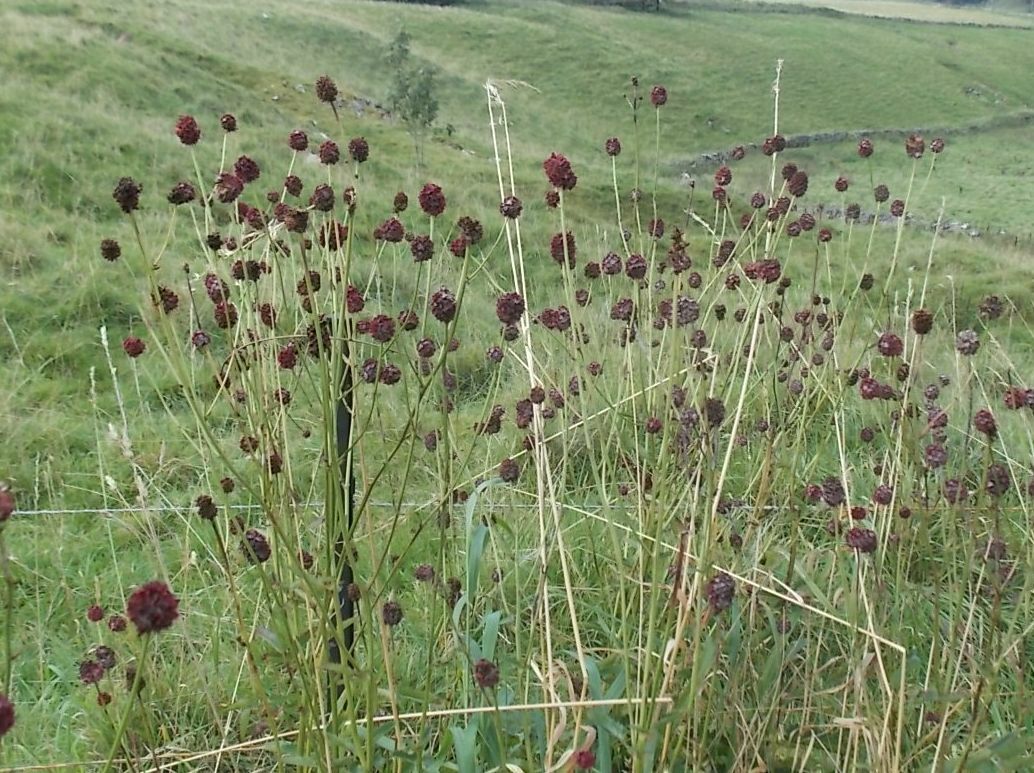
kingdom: Plantae
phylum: Tracheophyta
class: Magnoliopsida
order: Rosales
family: Rosaceae
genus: Sanguisorba
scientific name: Sanguisorba officinalis
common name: Great burnet
